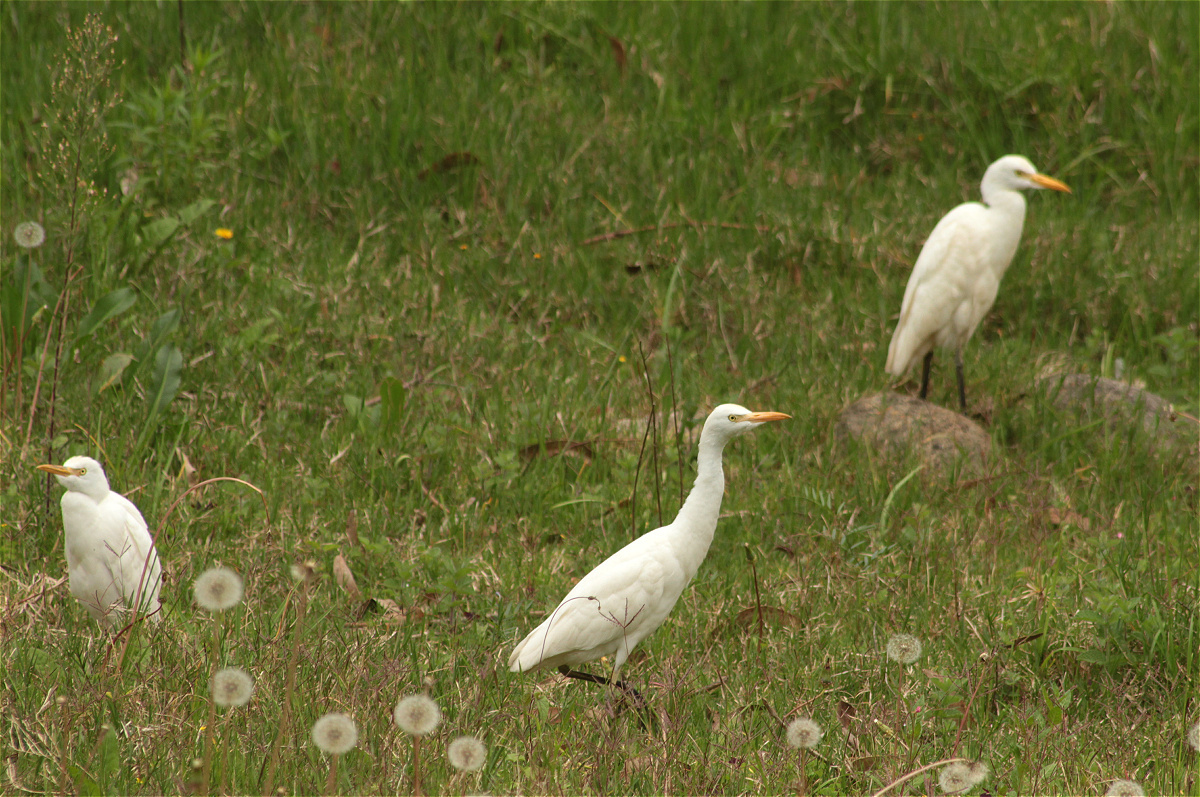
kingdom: Animalia
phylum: Chordata
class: Aves
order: Pelecaniformes
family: Ardeidae
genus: Bubulcus
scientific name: Bubulcus ibis
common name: Cattle egret
